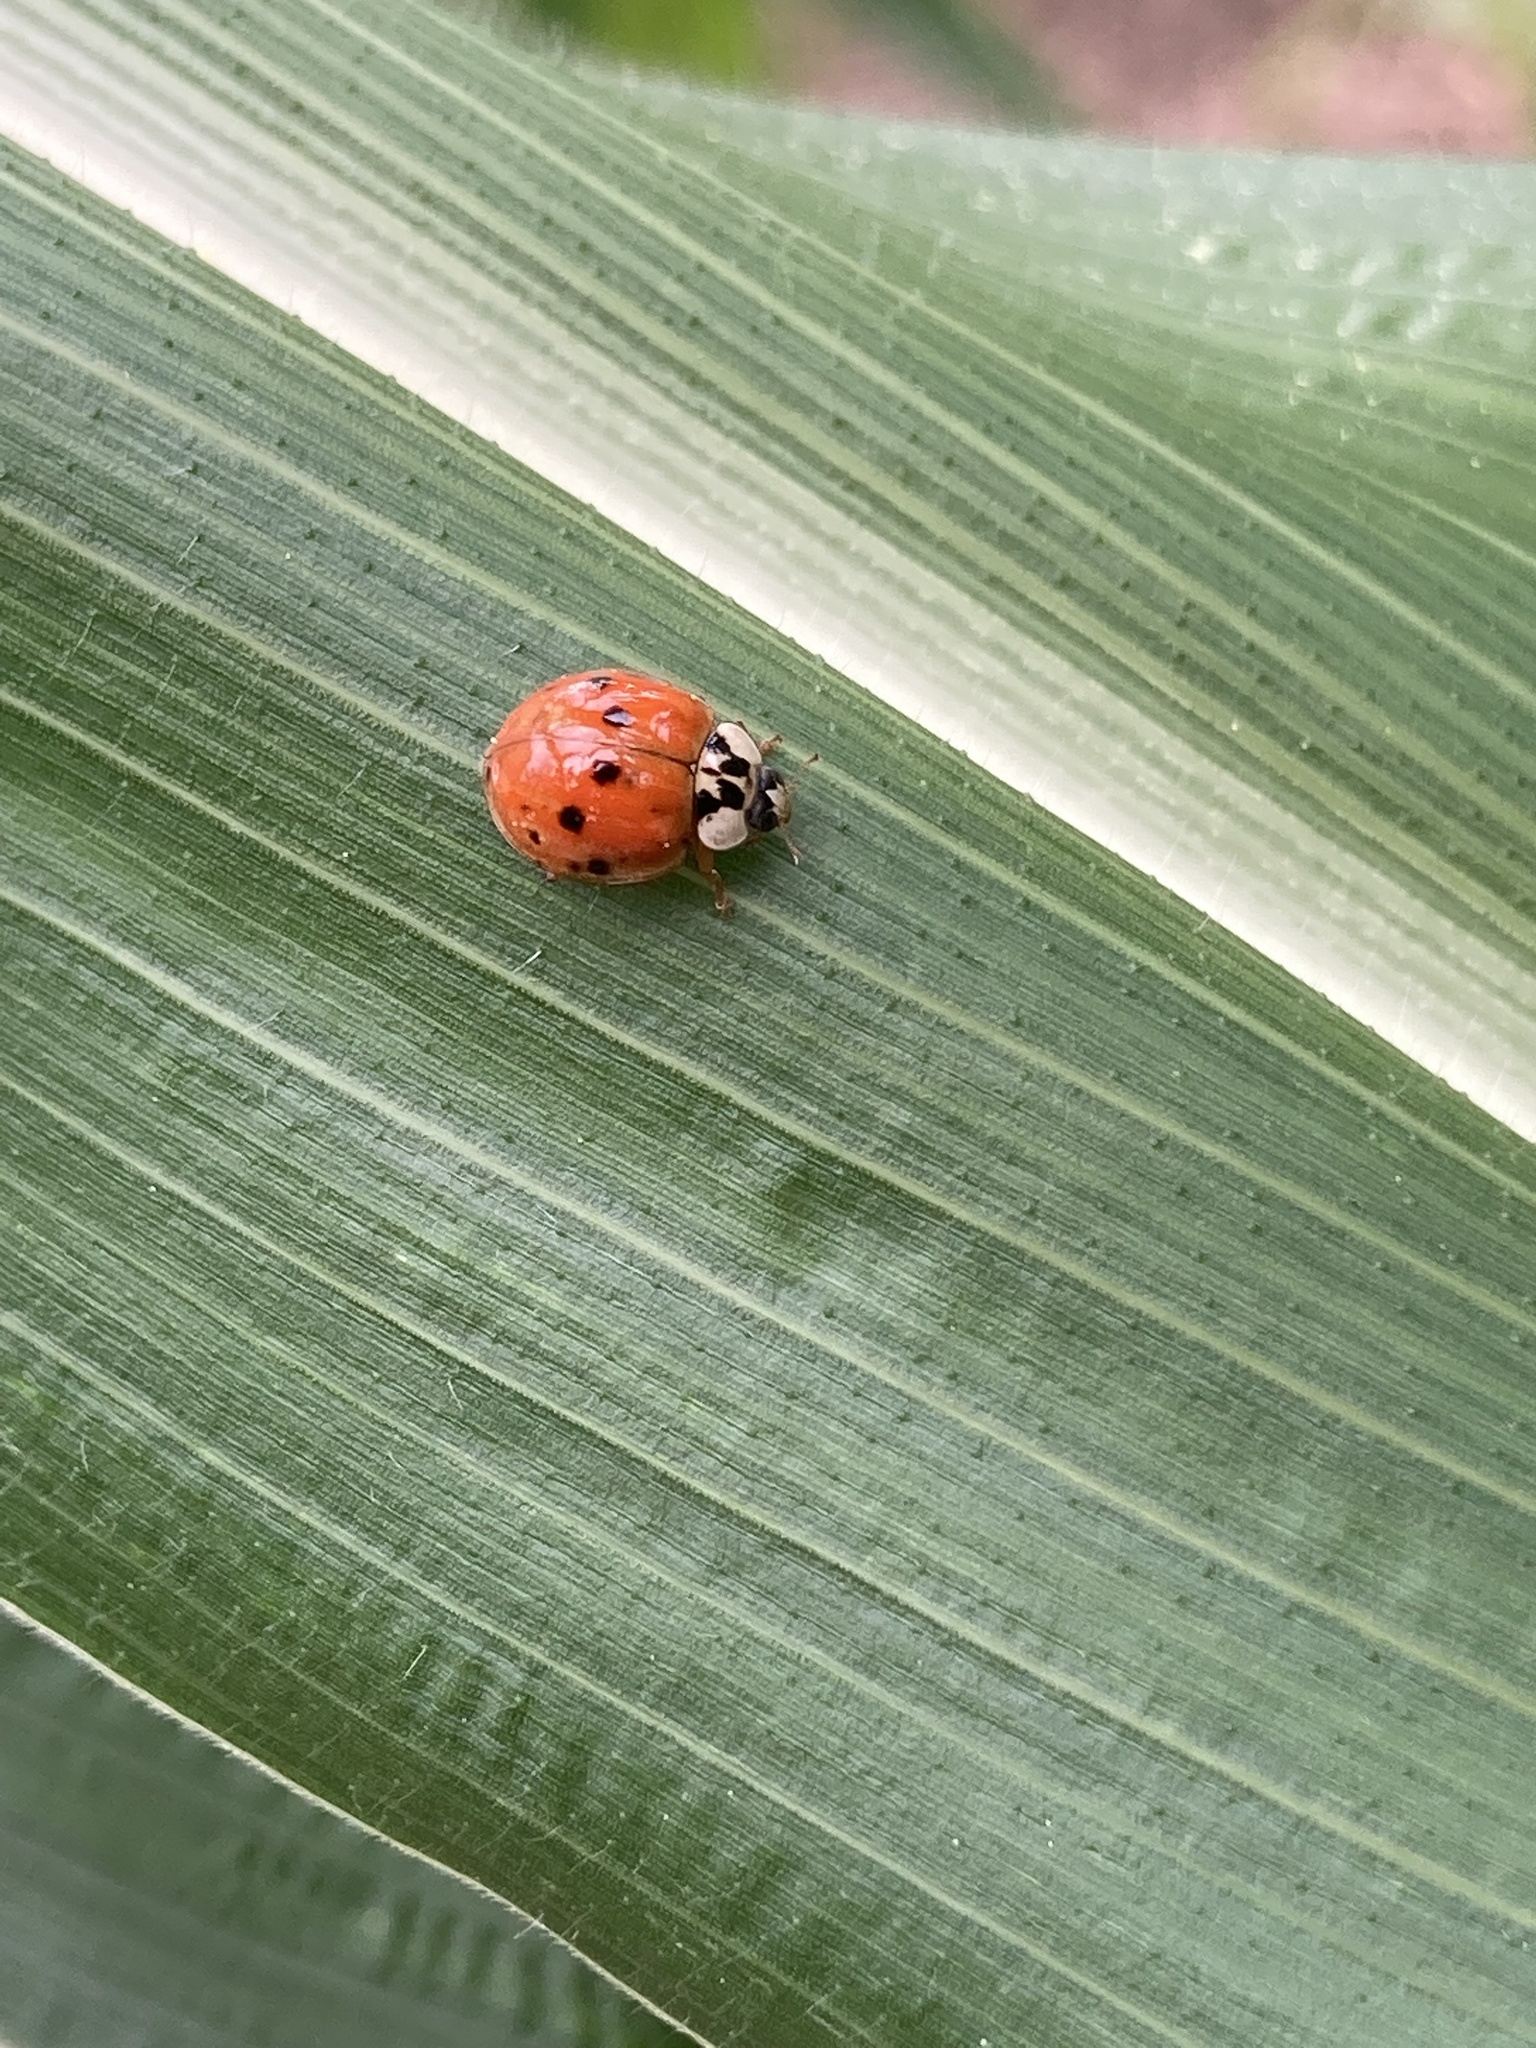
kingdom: Animalia
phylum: Arthropoda
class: Insecta
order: Coleoptera
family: Coccinellidae
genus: Harmonia
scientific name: Harmonia axyridis
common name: Harlequin ladybird
